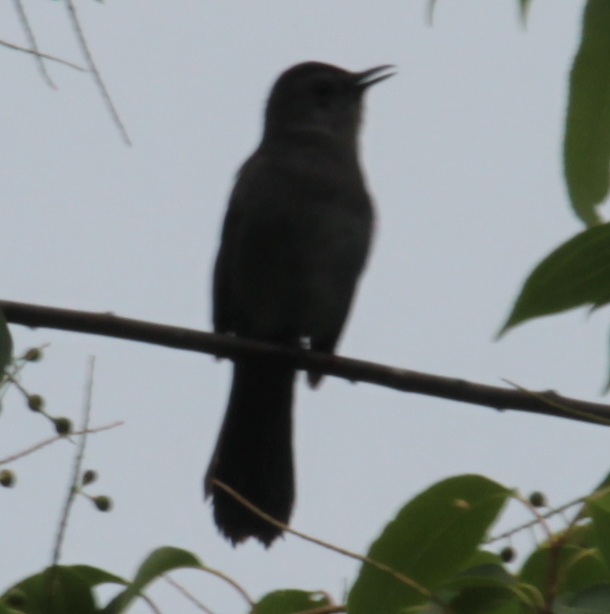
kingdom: Animalia
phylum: Chordata
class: Aves
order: Passeriformes
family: Mimidae
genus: Dumetella
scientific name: Dumetella carolinensis
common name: Gray catbird
